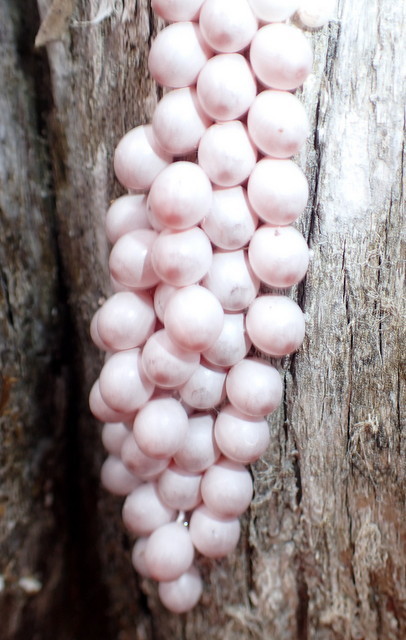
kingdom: Animalia
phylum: Mollusca
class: Gastropoda
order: Architaenioglossa
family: Ampullariidae
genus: Pomacea
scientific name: Pomacea paludosa
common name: Florida applesnail
